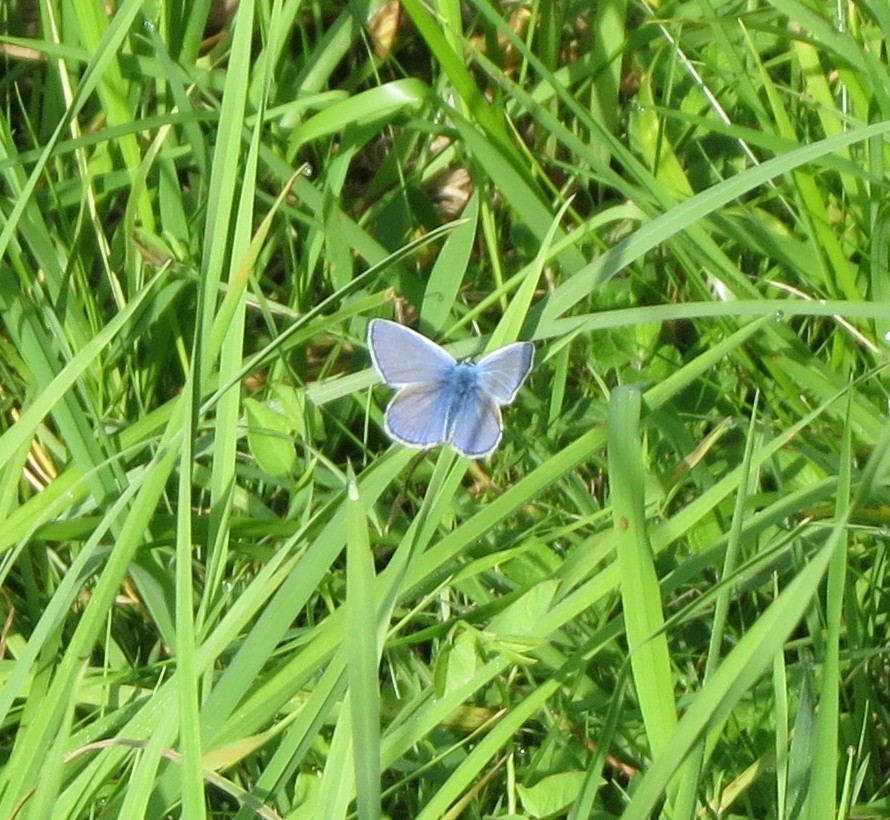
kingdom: Animalia
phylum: Arthropoda
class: Insecta
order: Lepidoptera
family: Lycaenidae
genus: Polyommatus
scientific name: Polyommatus icarus
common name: Common blue
